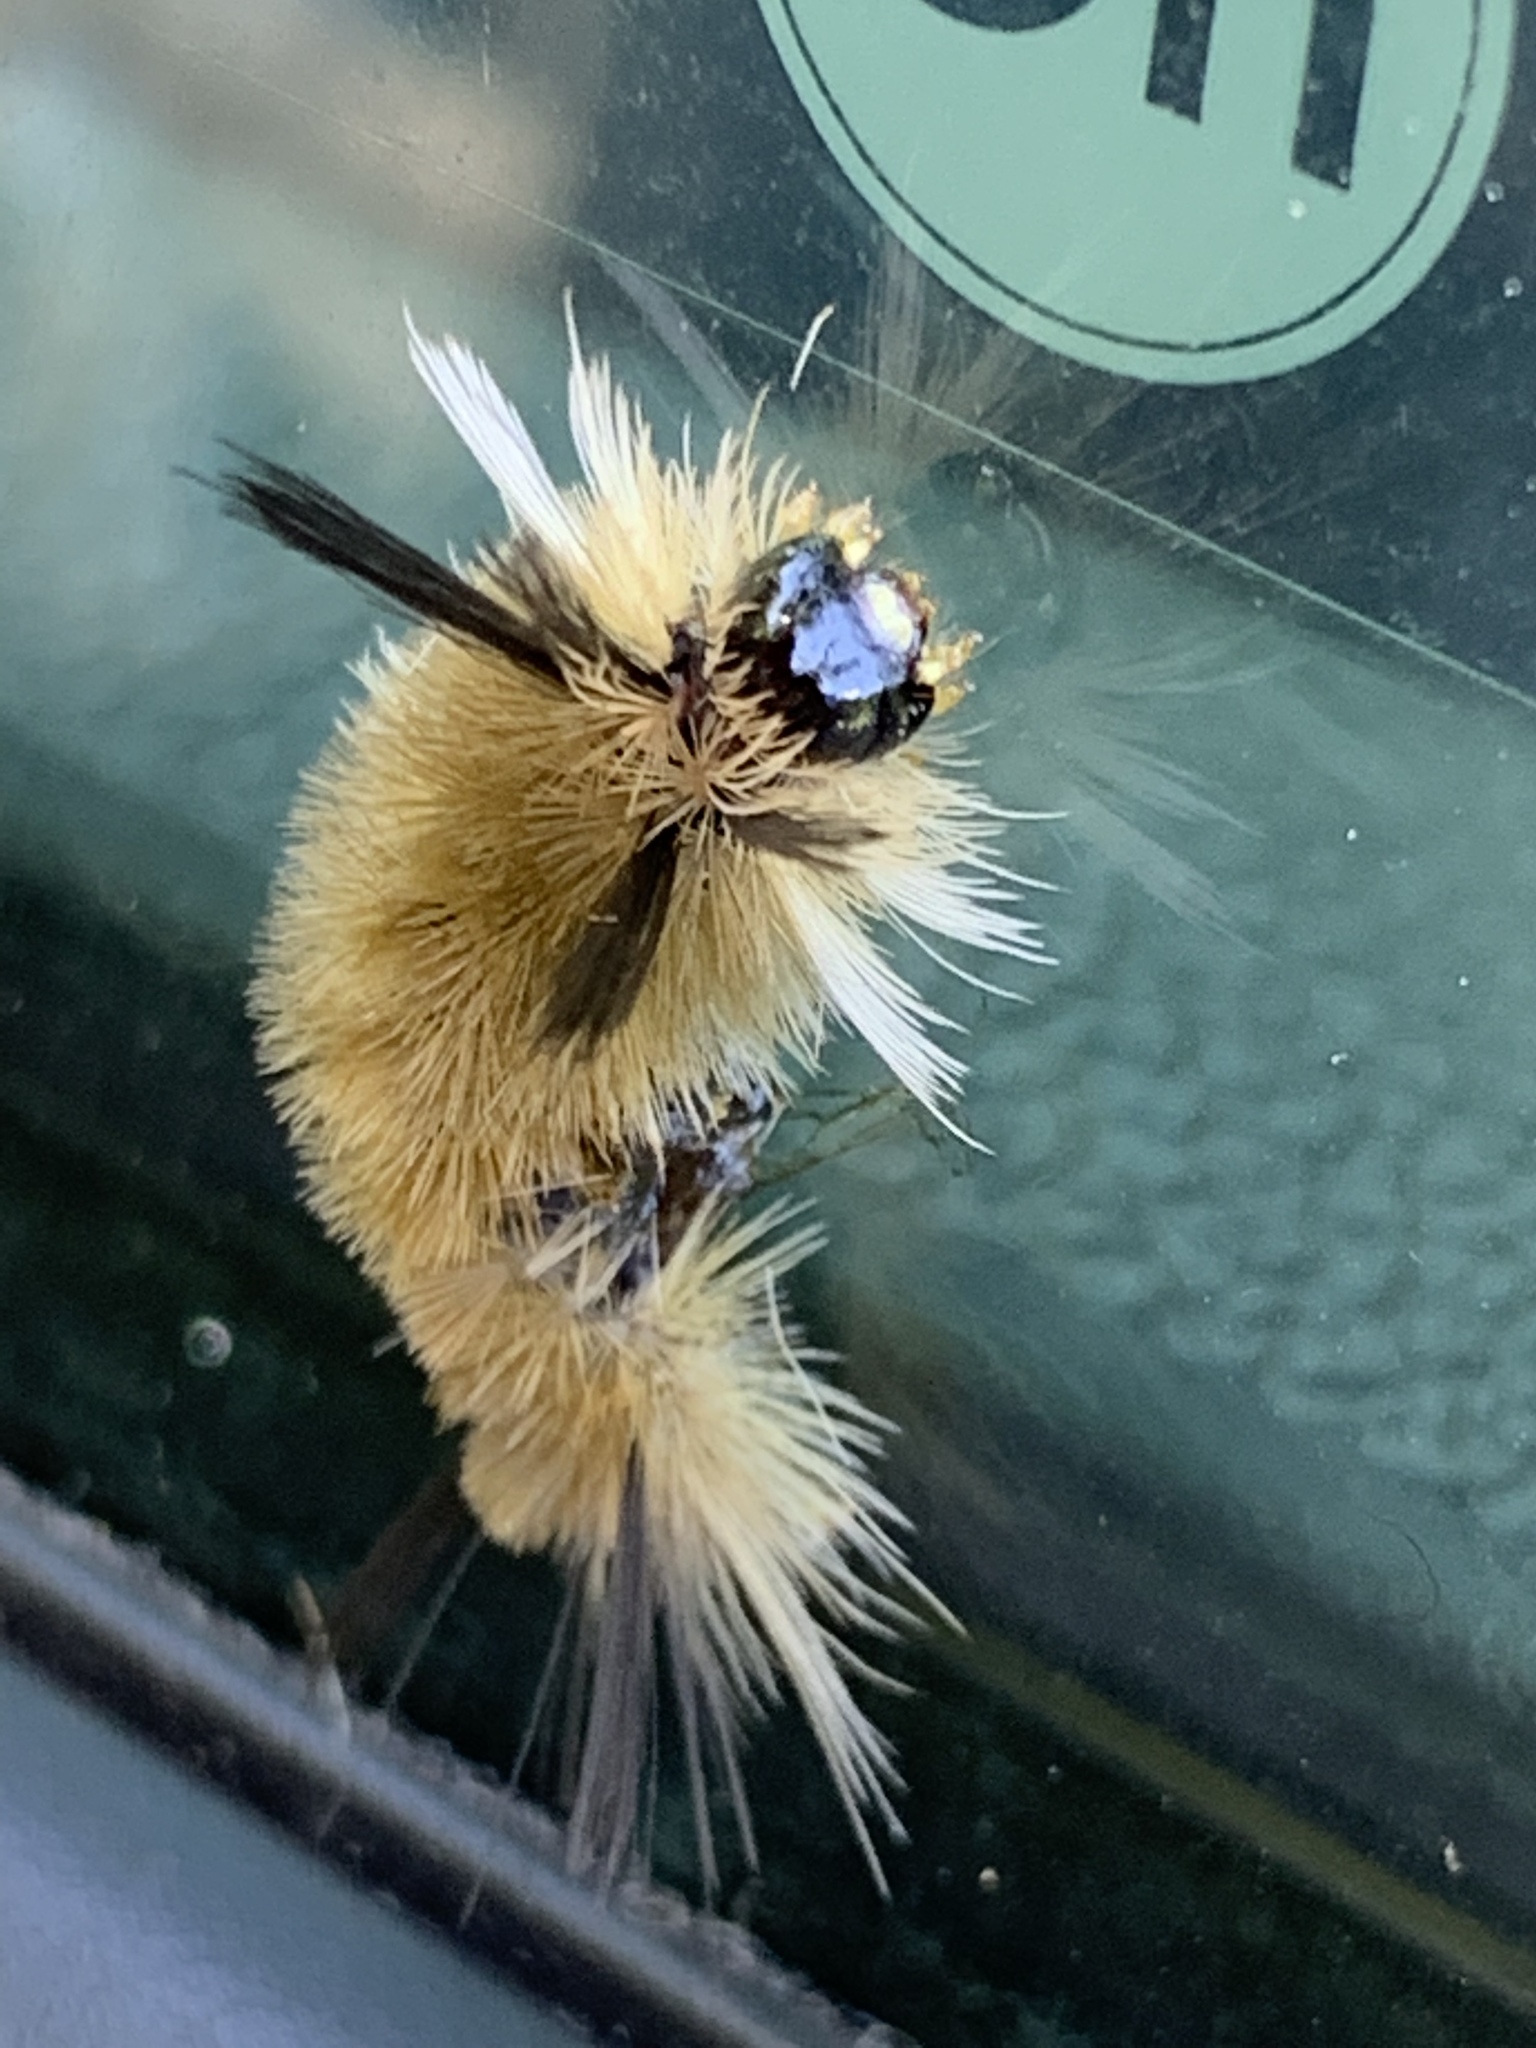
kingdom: Animalia
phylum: Arthropoda
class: Insecta
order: Lepidoptera
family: Erebidae
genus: Halysidota
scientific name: Halysidota tessellaris
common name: Banded tussock moth
